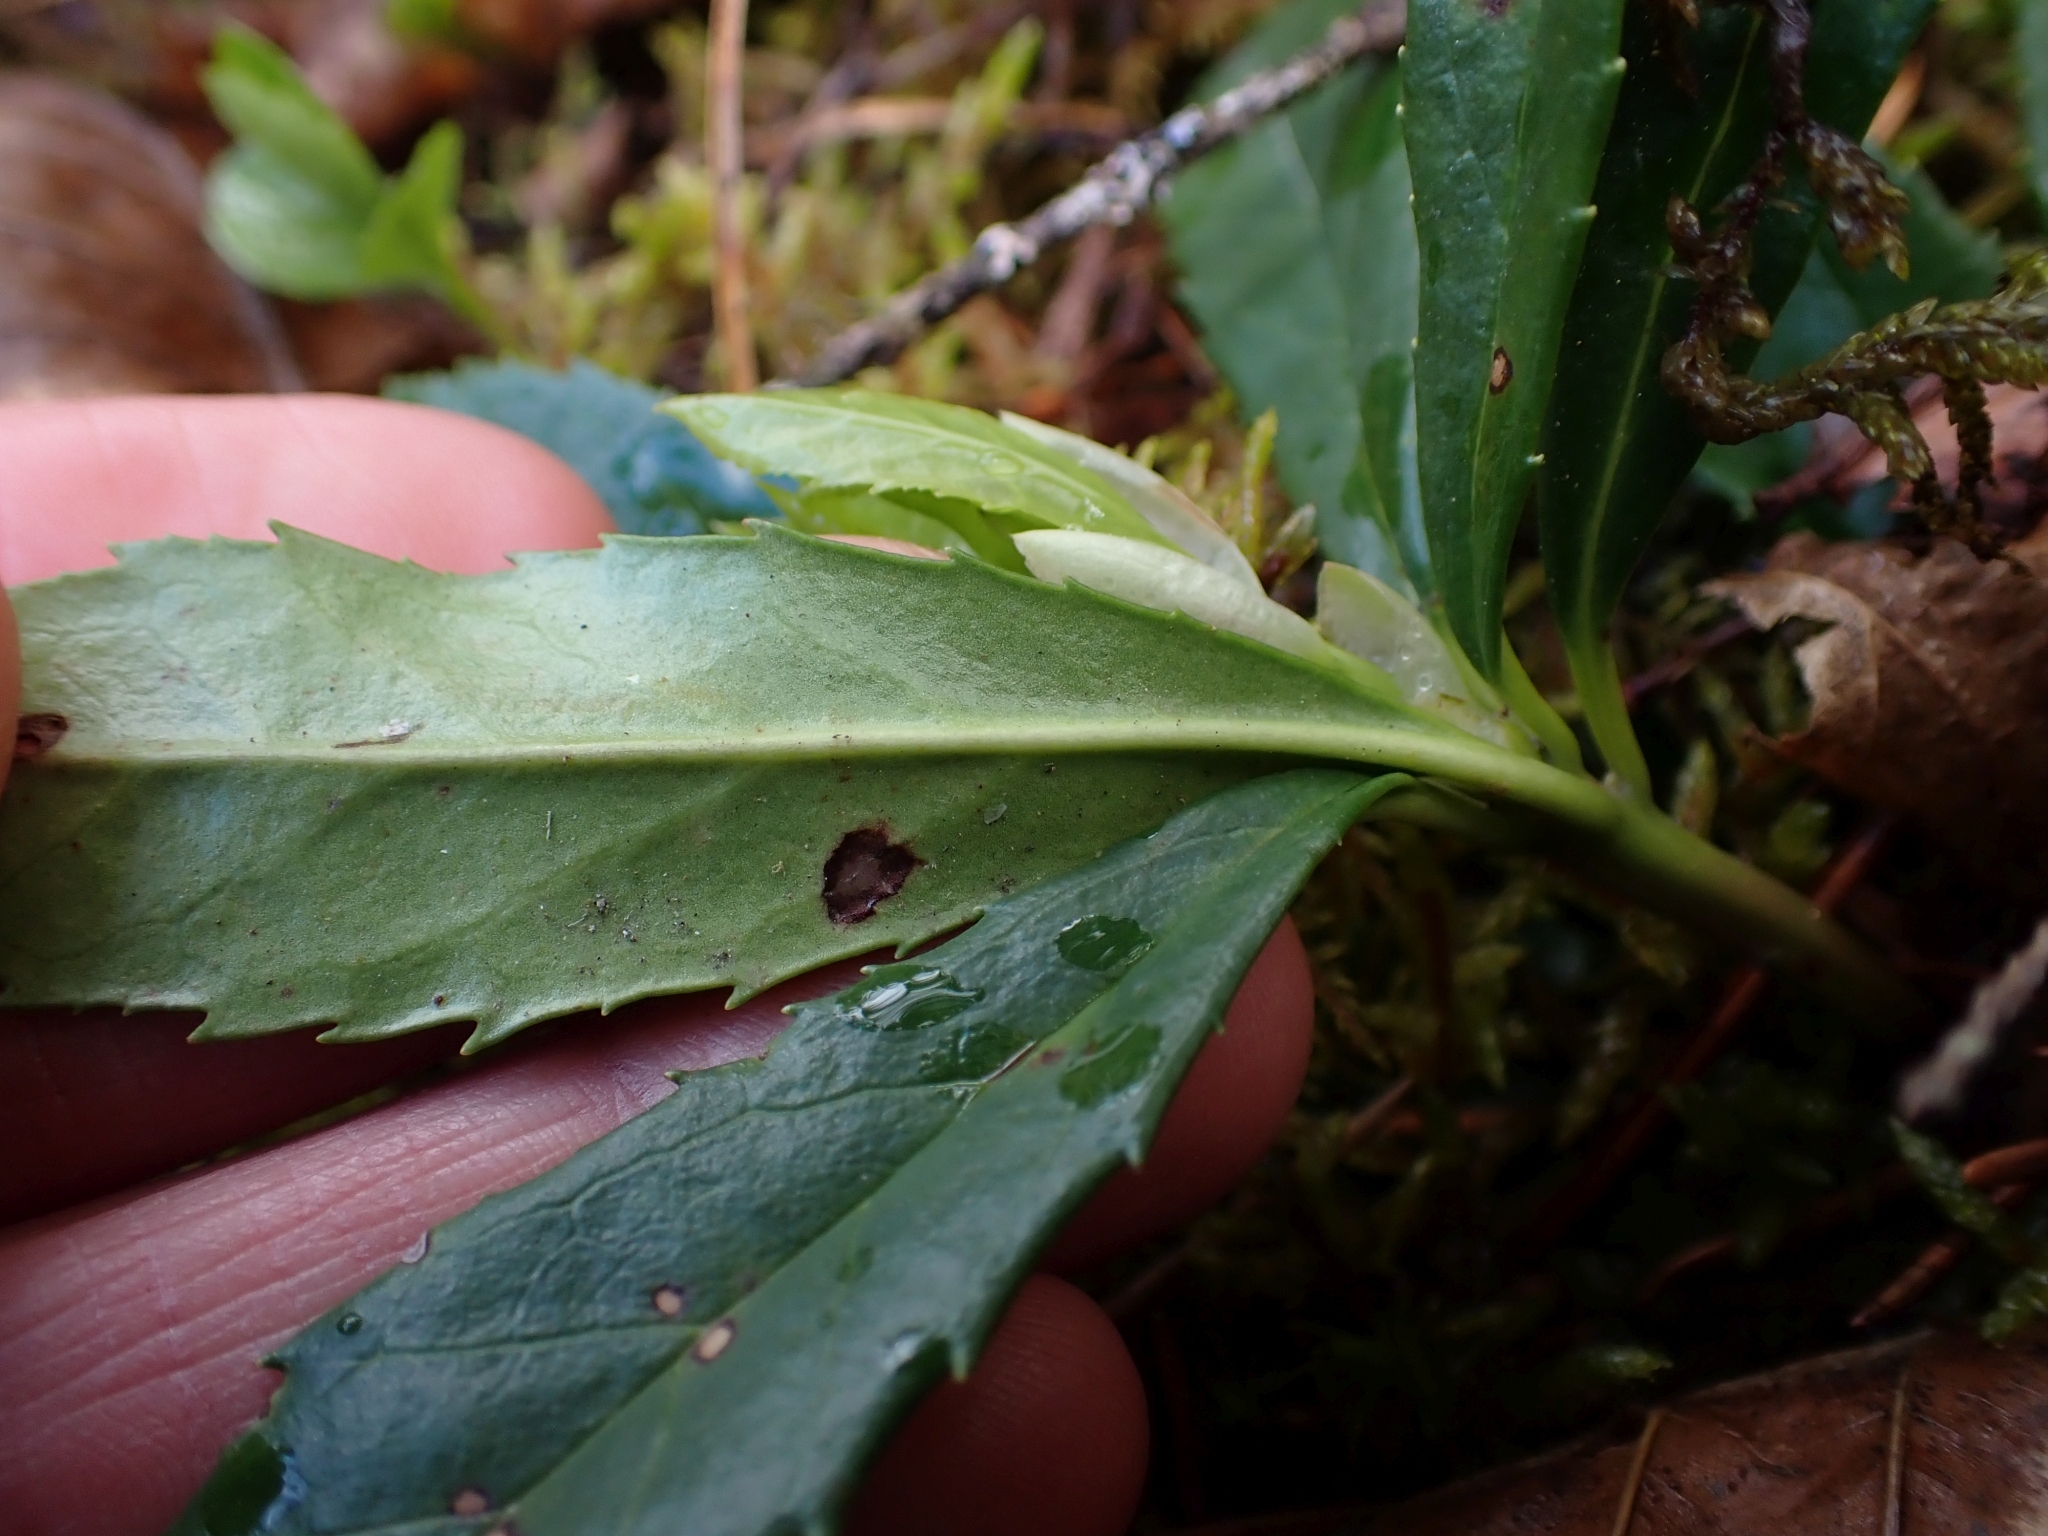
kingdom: Plantae
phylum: Tracheophyta
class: Magnoliopsida
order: Ericales
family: Ericaceae
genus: Chimaphila
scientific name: Chimaphila umbellata
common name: Pipsissewa
